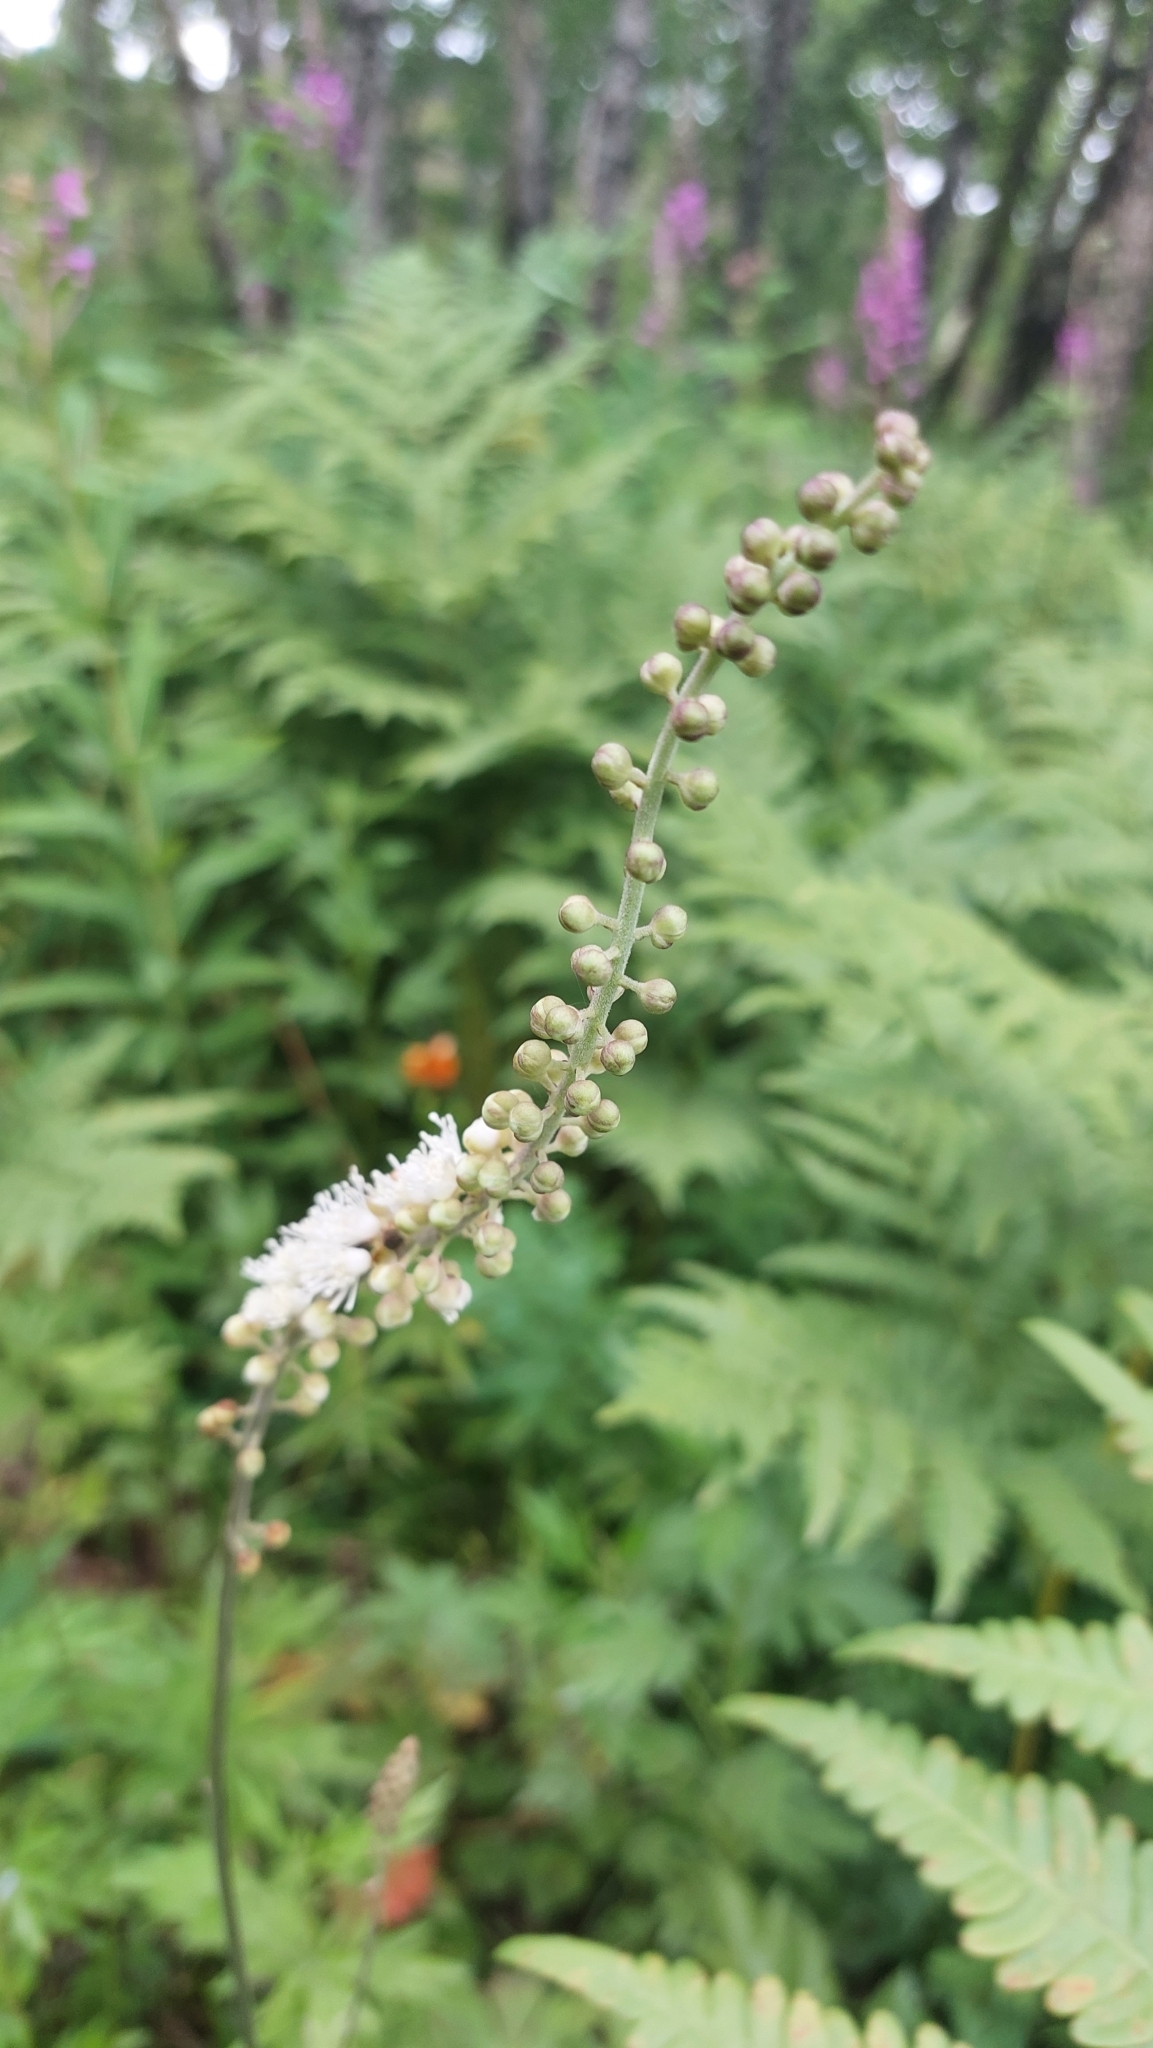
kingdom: Plantae
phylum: Tracheophyta
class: Magnoliopsida
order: Ranunculales
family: Ranunculaceae
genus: Actaea
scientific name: Actaea simplex
